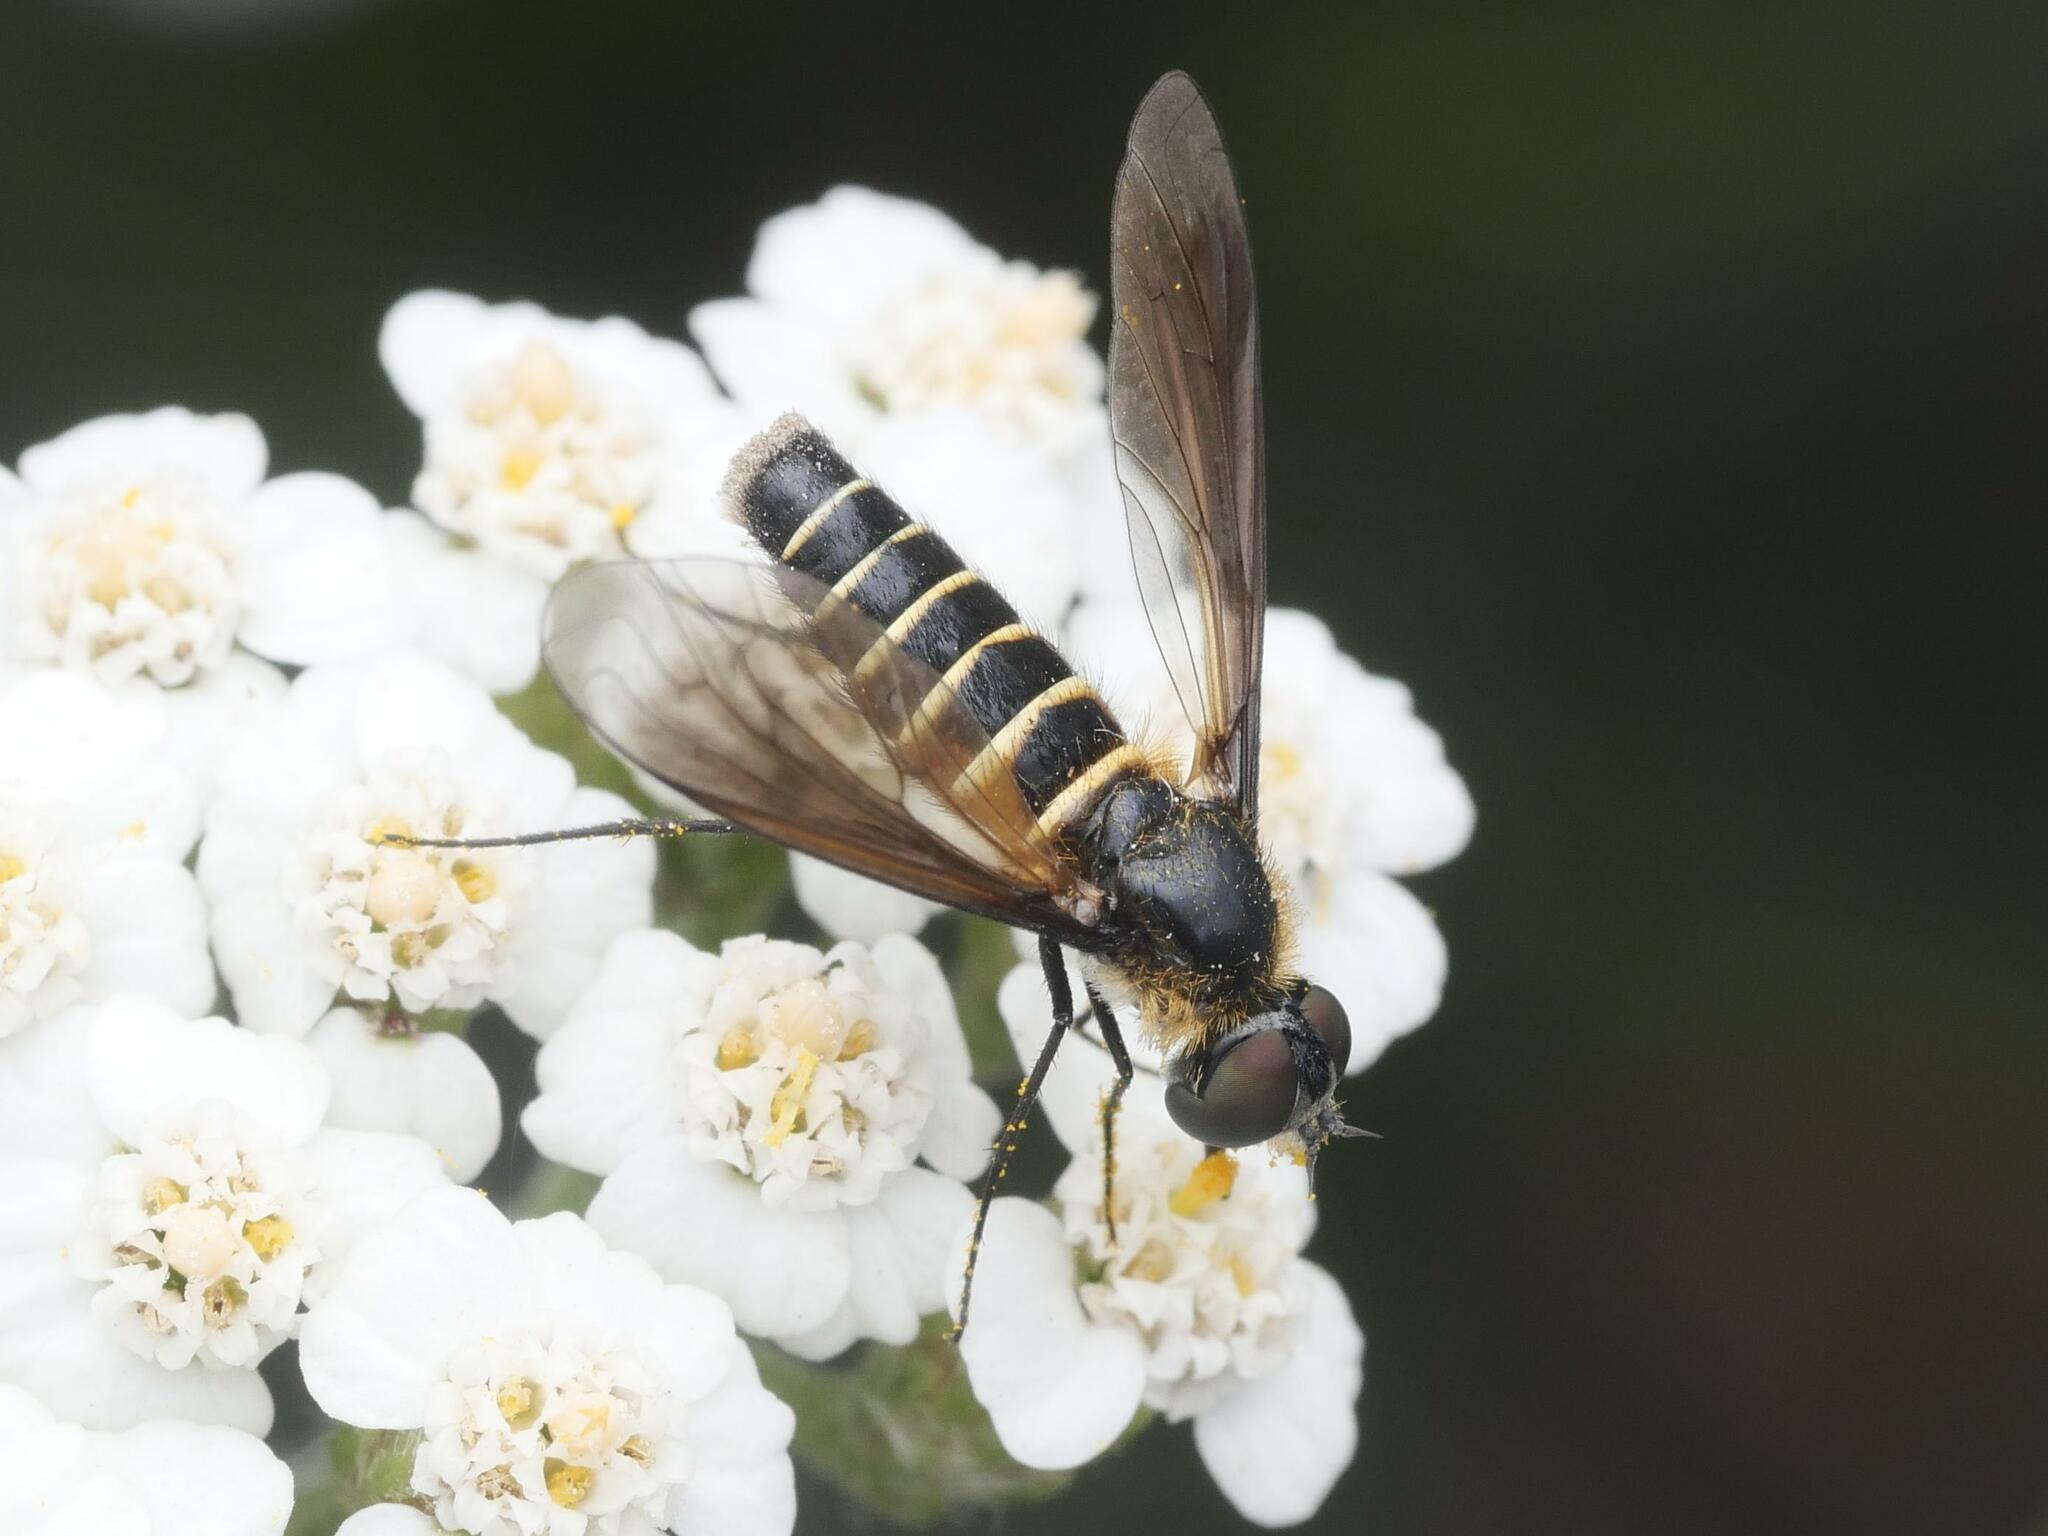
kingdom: Animalia
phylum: Arthropoda
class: Insecta
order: Diptera
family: Bombyliidae
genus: Lomatia
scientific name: Lomatia lateralis
